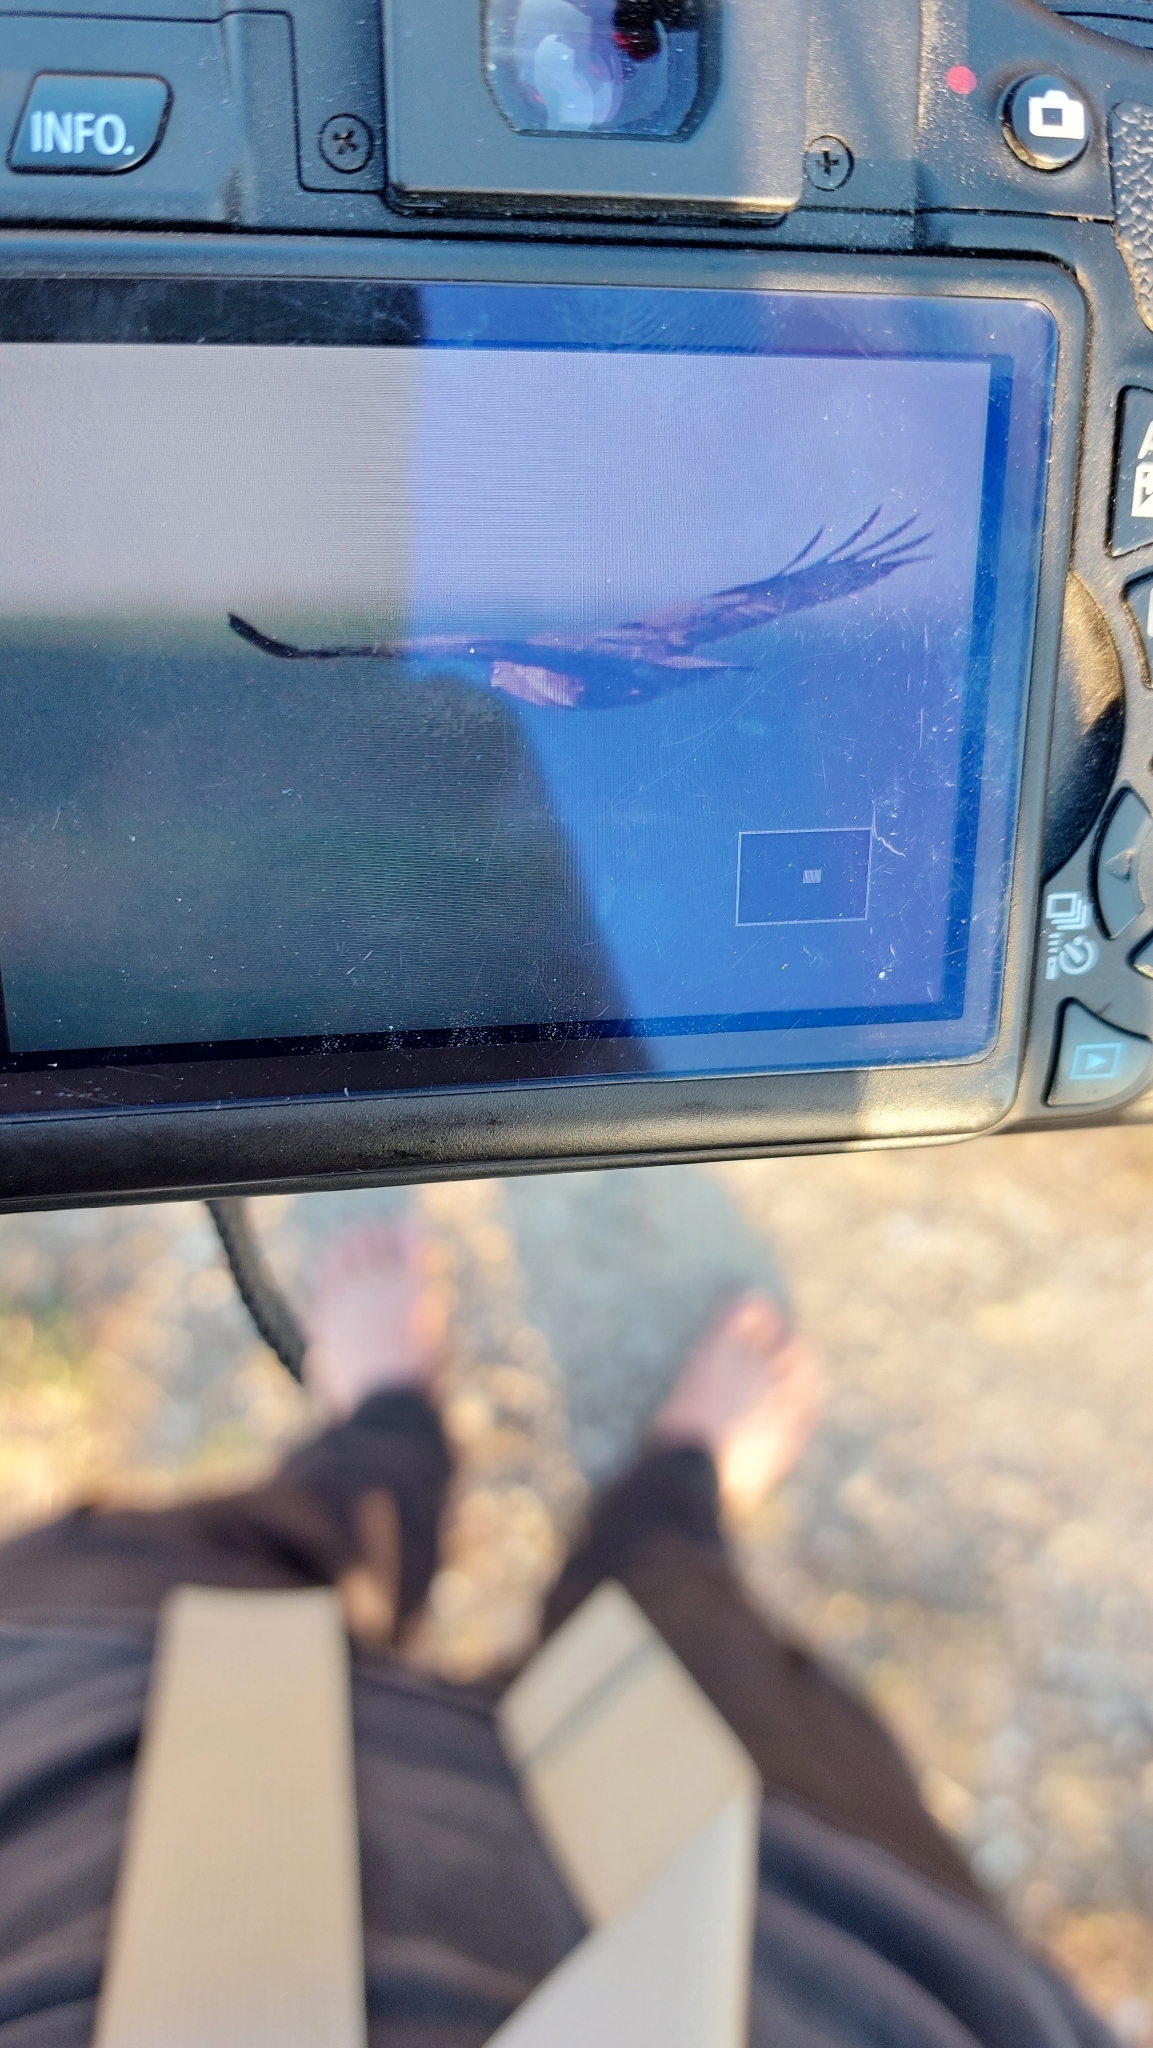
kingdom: Animalia
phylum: Chordata
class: Aves
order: Accipitriformes
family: Accipitridae
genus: Buteo
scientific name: Buteo buteo
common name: Common buzzard
